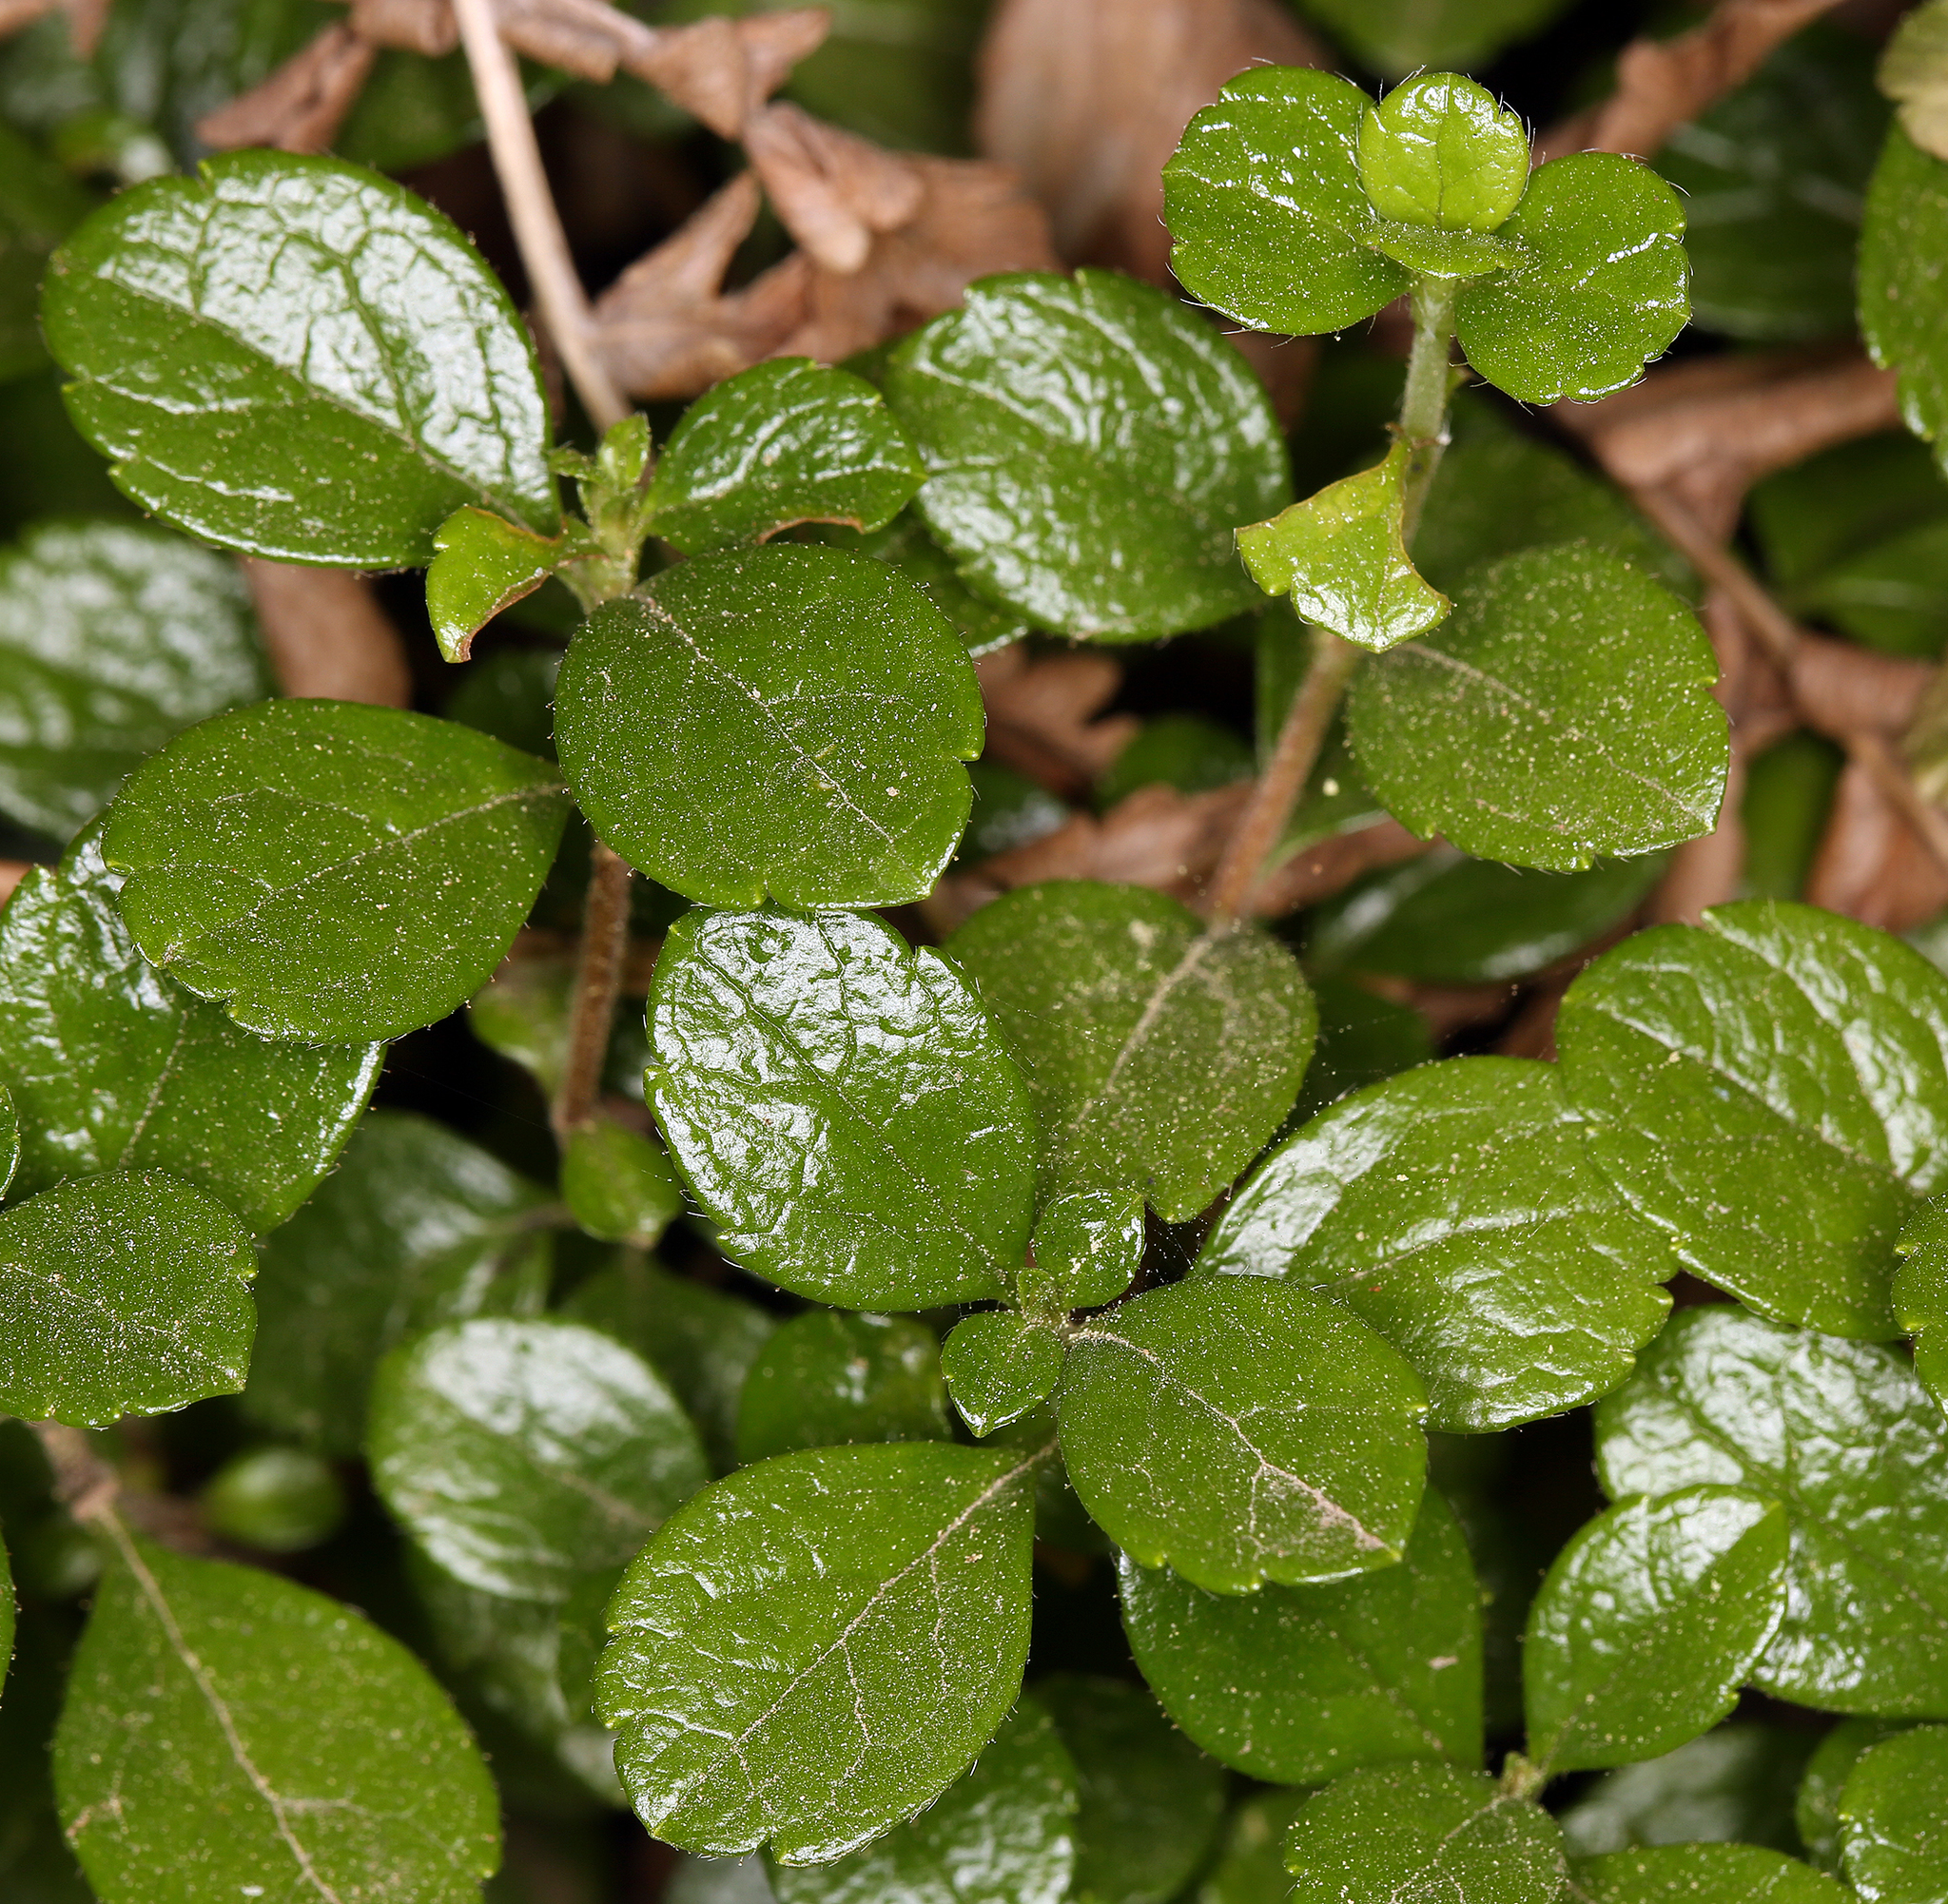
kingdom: Plantae
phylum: Tracheophyta
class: Magnoliopsida
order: Dipsacales
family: Caprifoliaceae
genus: Linnaea
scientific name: Linnaea borealis
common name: Twinflower
